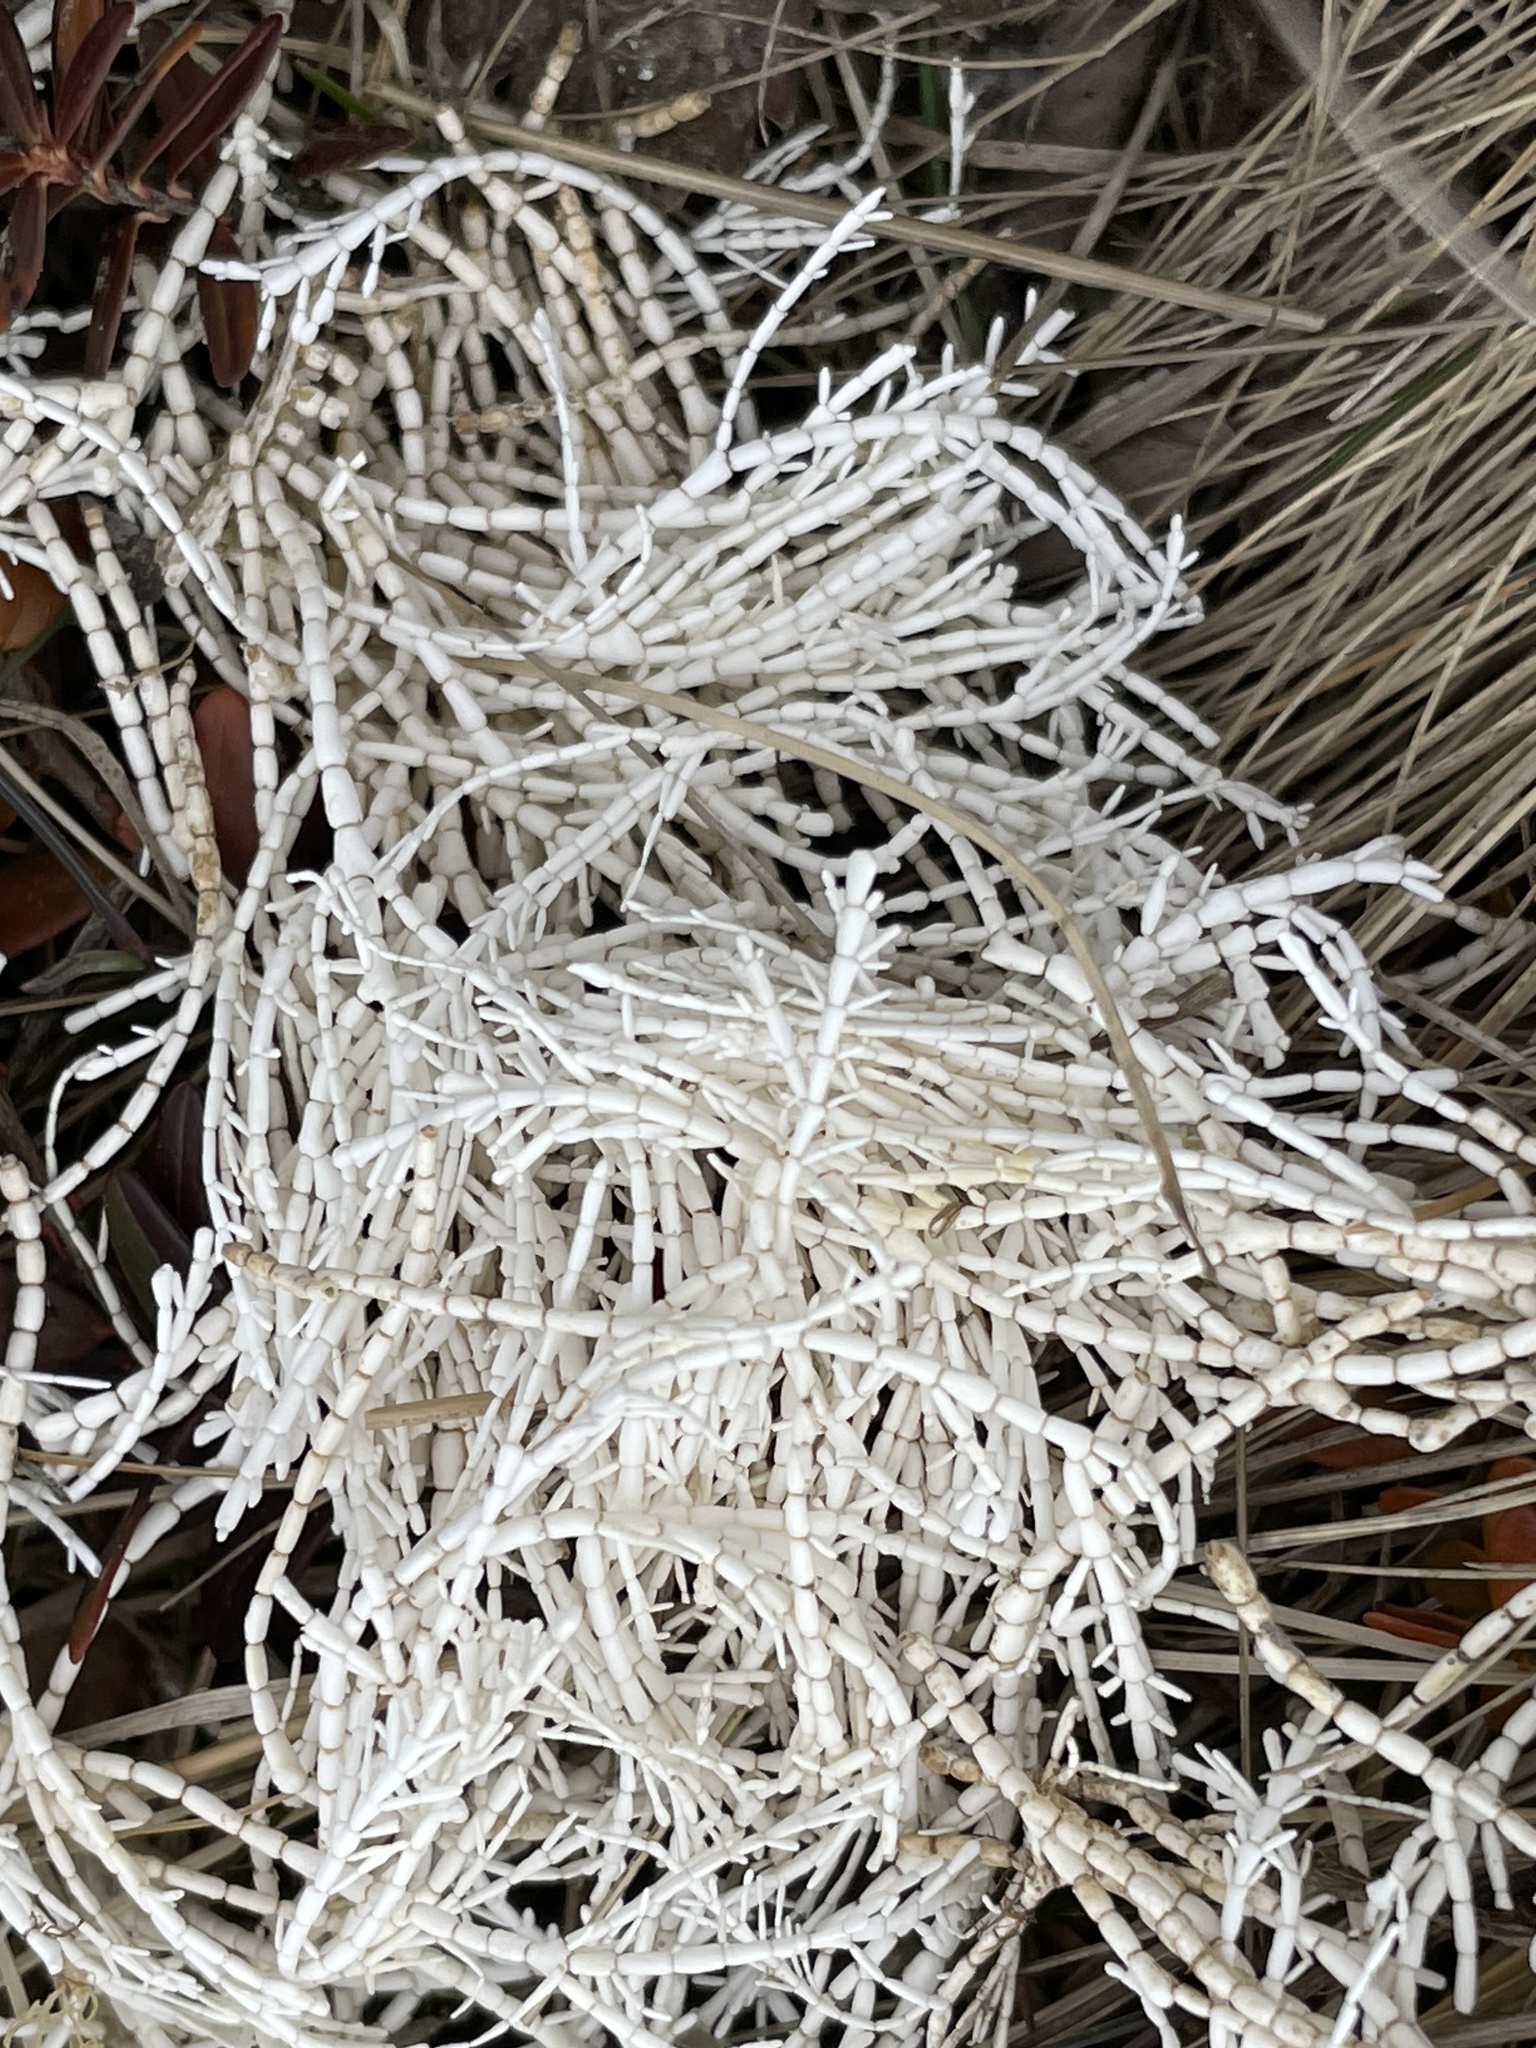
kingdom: Plantae
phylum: Rhodophyta
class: Florideophyceae
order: Corallinales
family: Corallinaceae
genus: Corallina
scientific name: Corallina officinalis
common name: Coral weed
